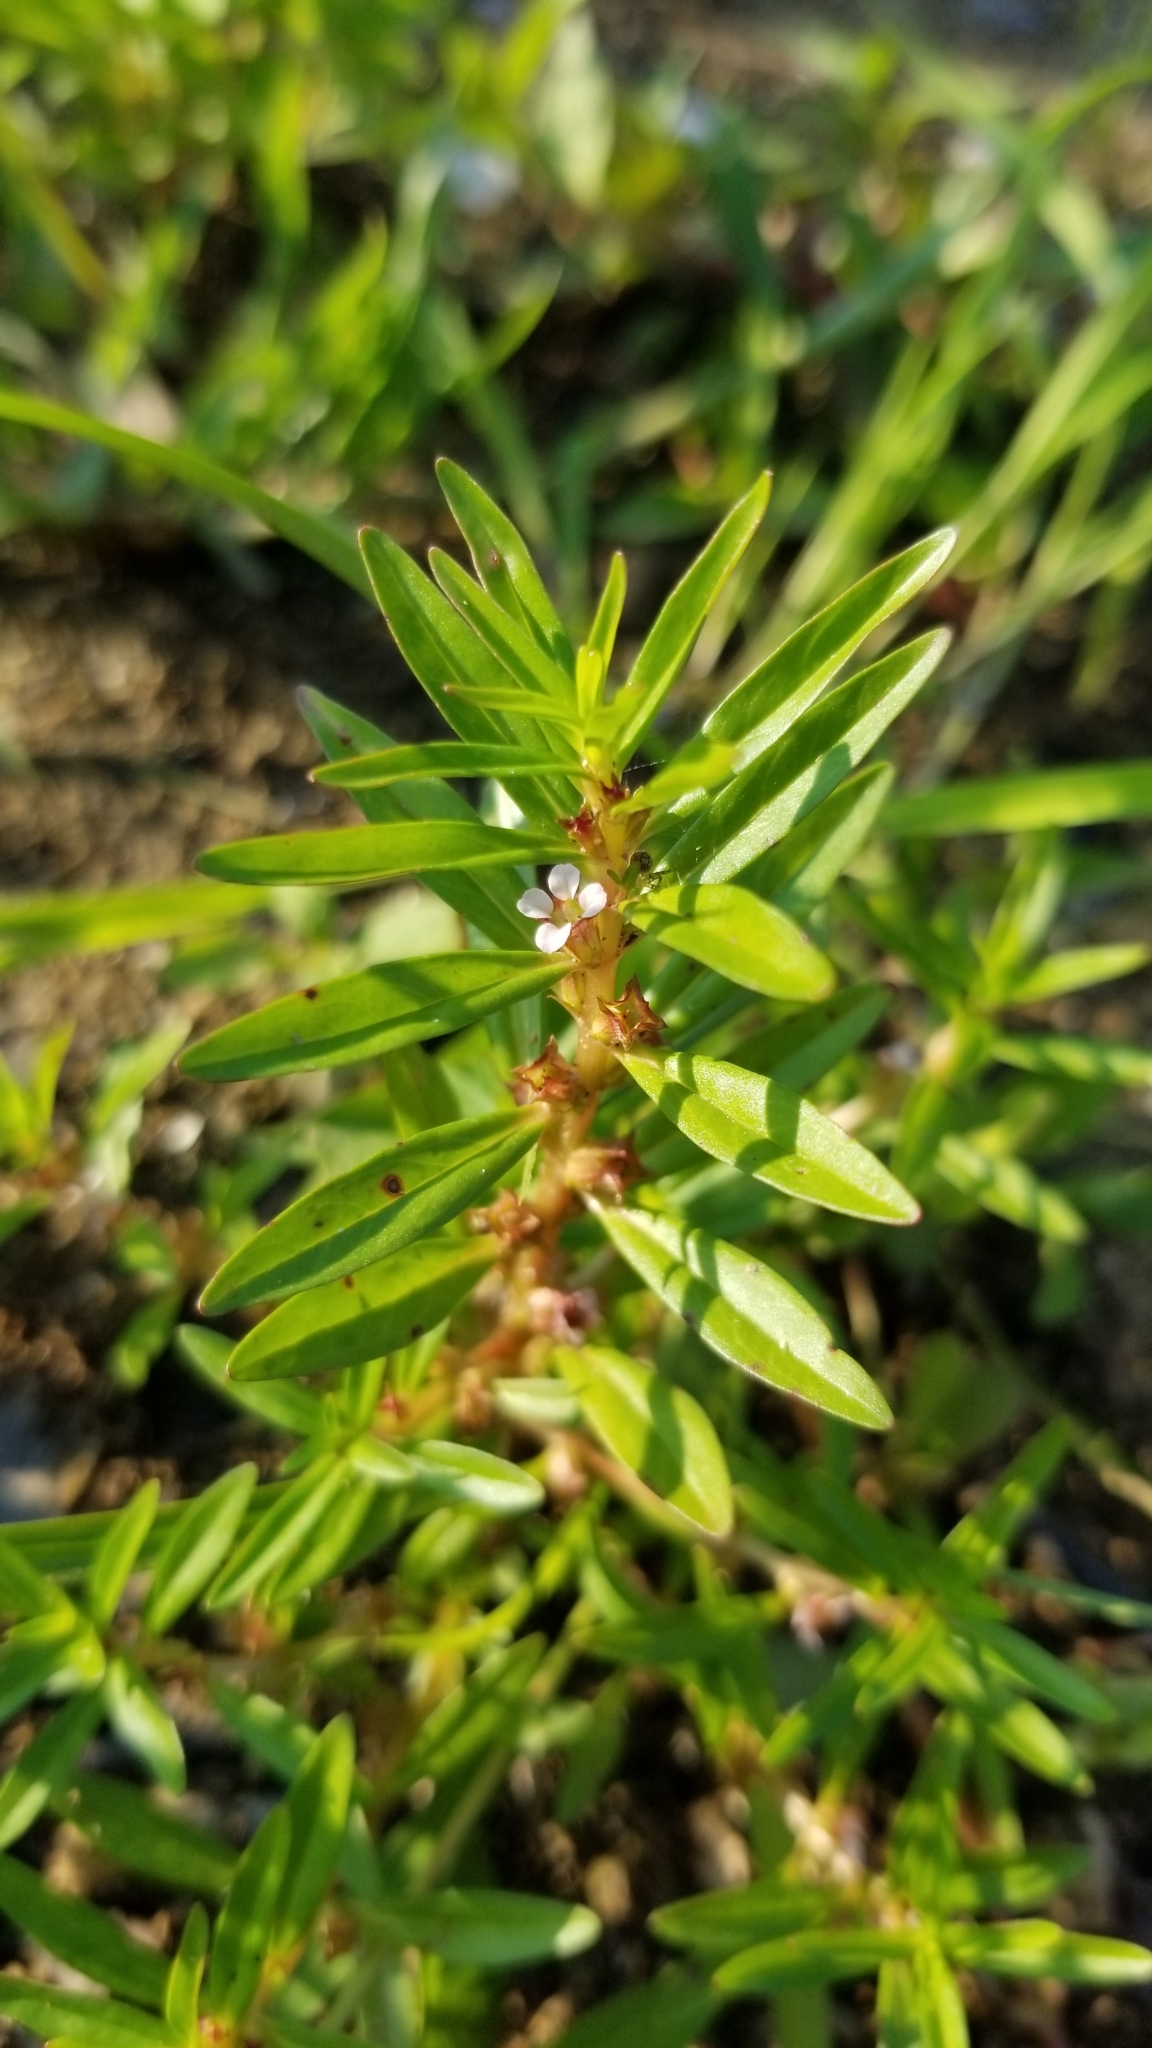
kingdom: Plantae
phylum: Tracheophyta
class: Magnoliopsida
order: Myrtales
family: Lythraceae
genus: Rotala
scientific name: Rotala ramosior
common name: Lowland rotala
